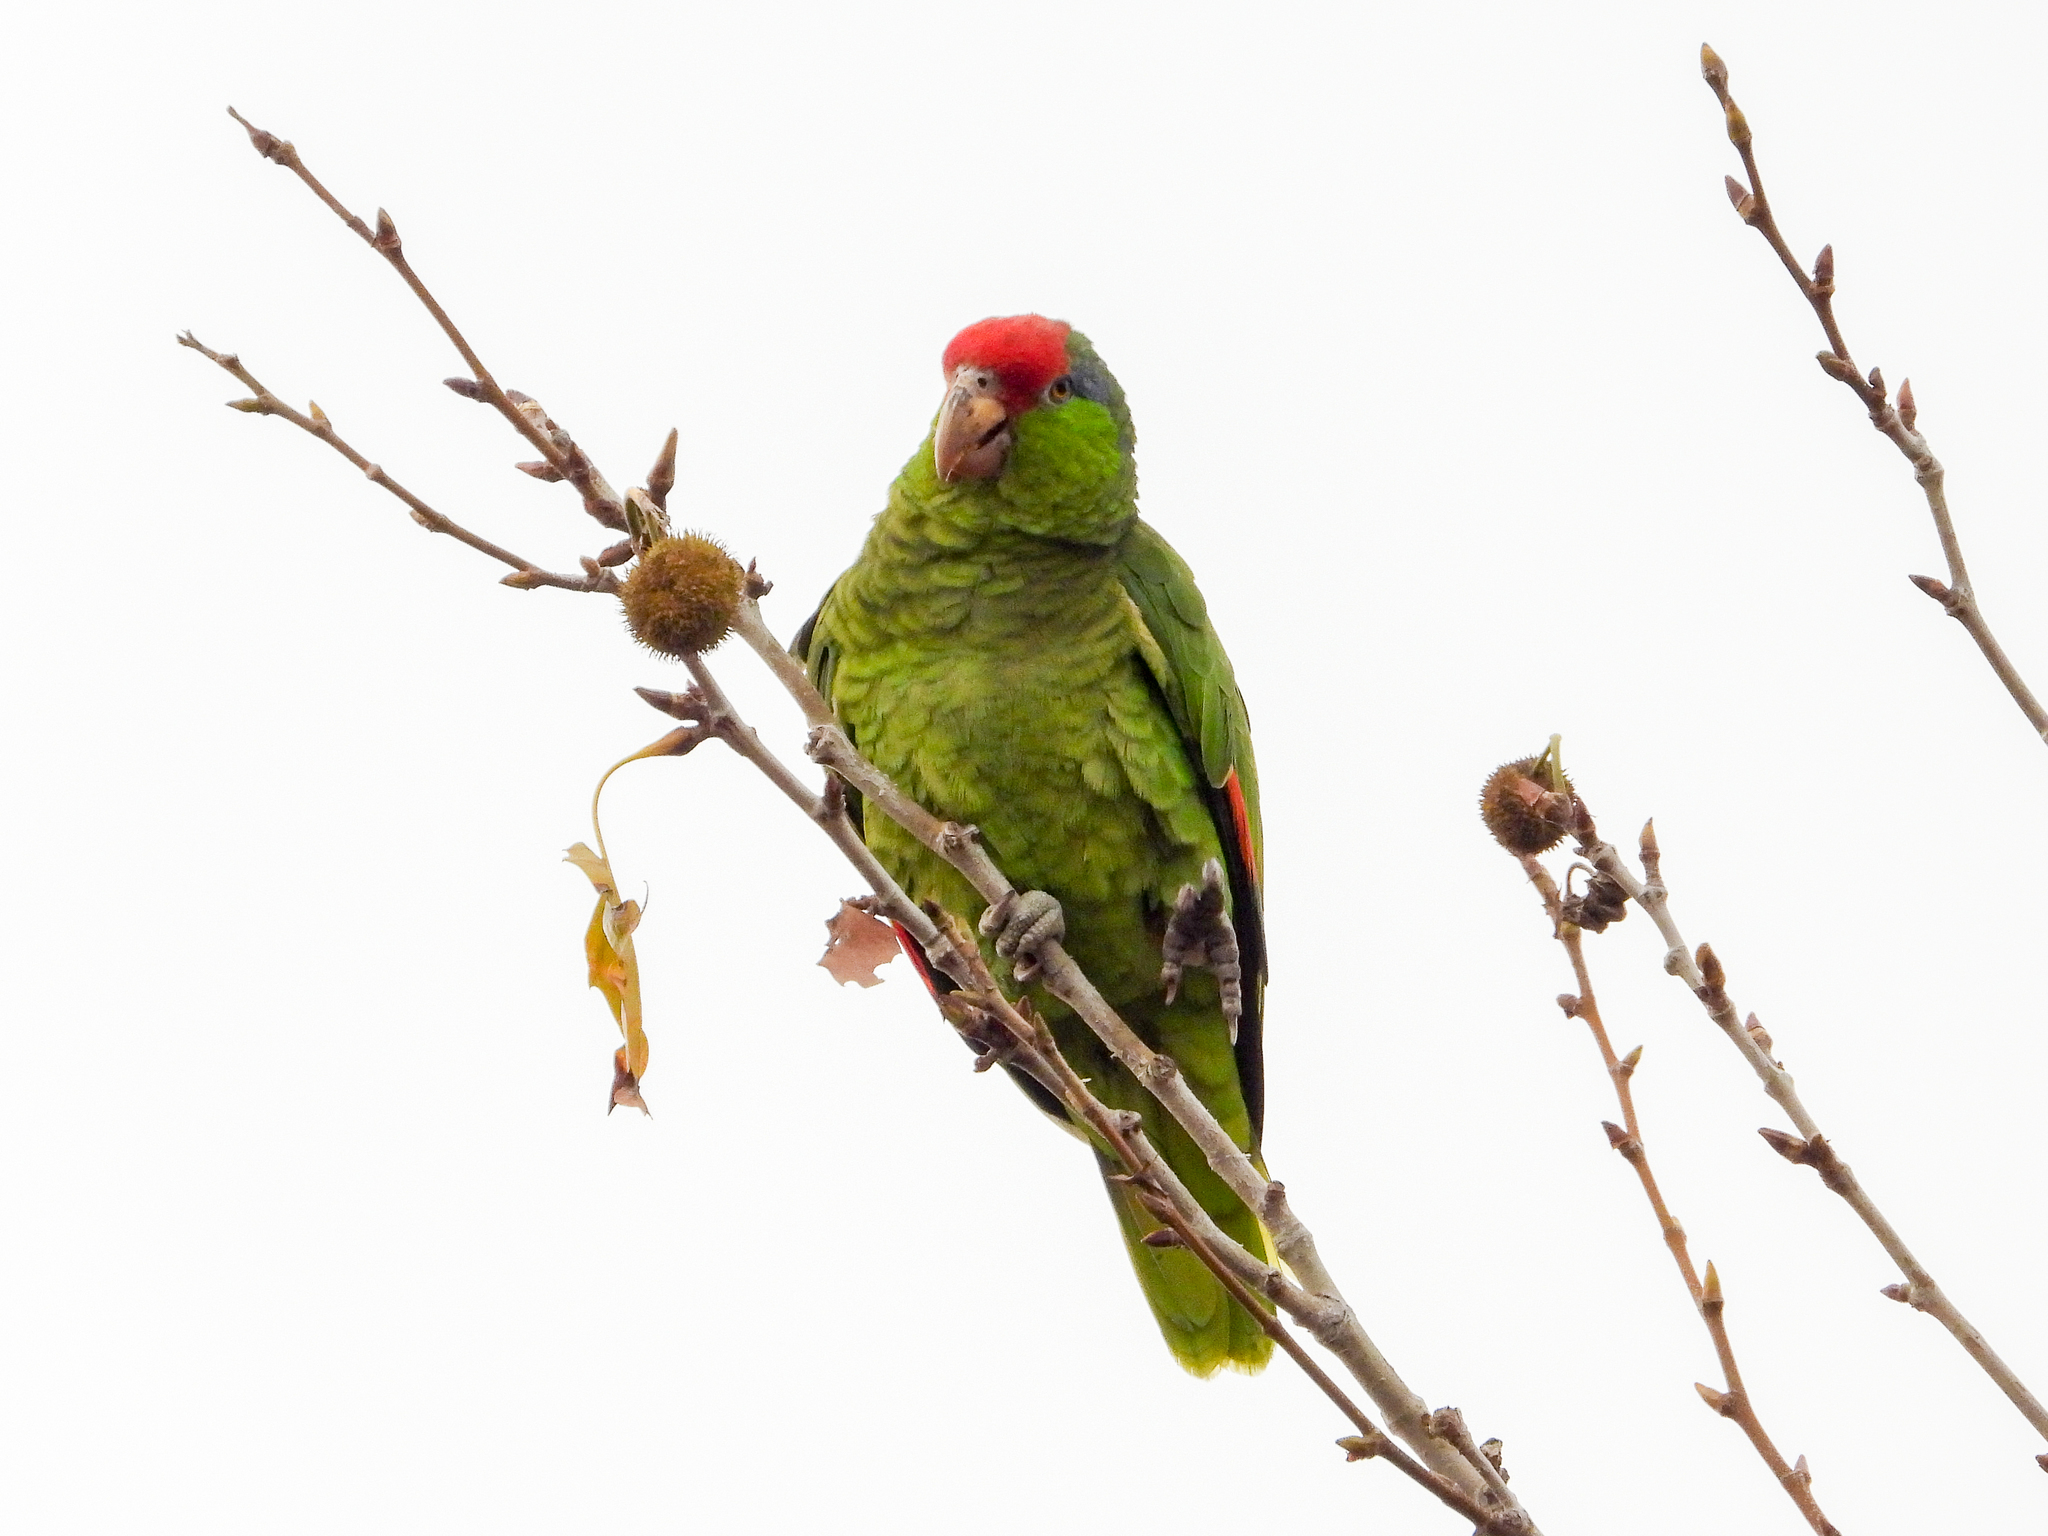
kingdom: Animalia
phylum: Chordata
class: Aves
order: Psittaciformes
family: Psittacidae
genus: Amazona
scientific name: Amazona viridigenalis
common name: Red-crowned amazon
